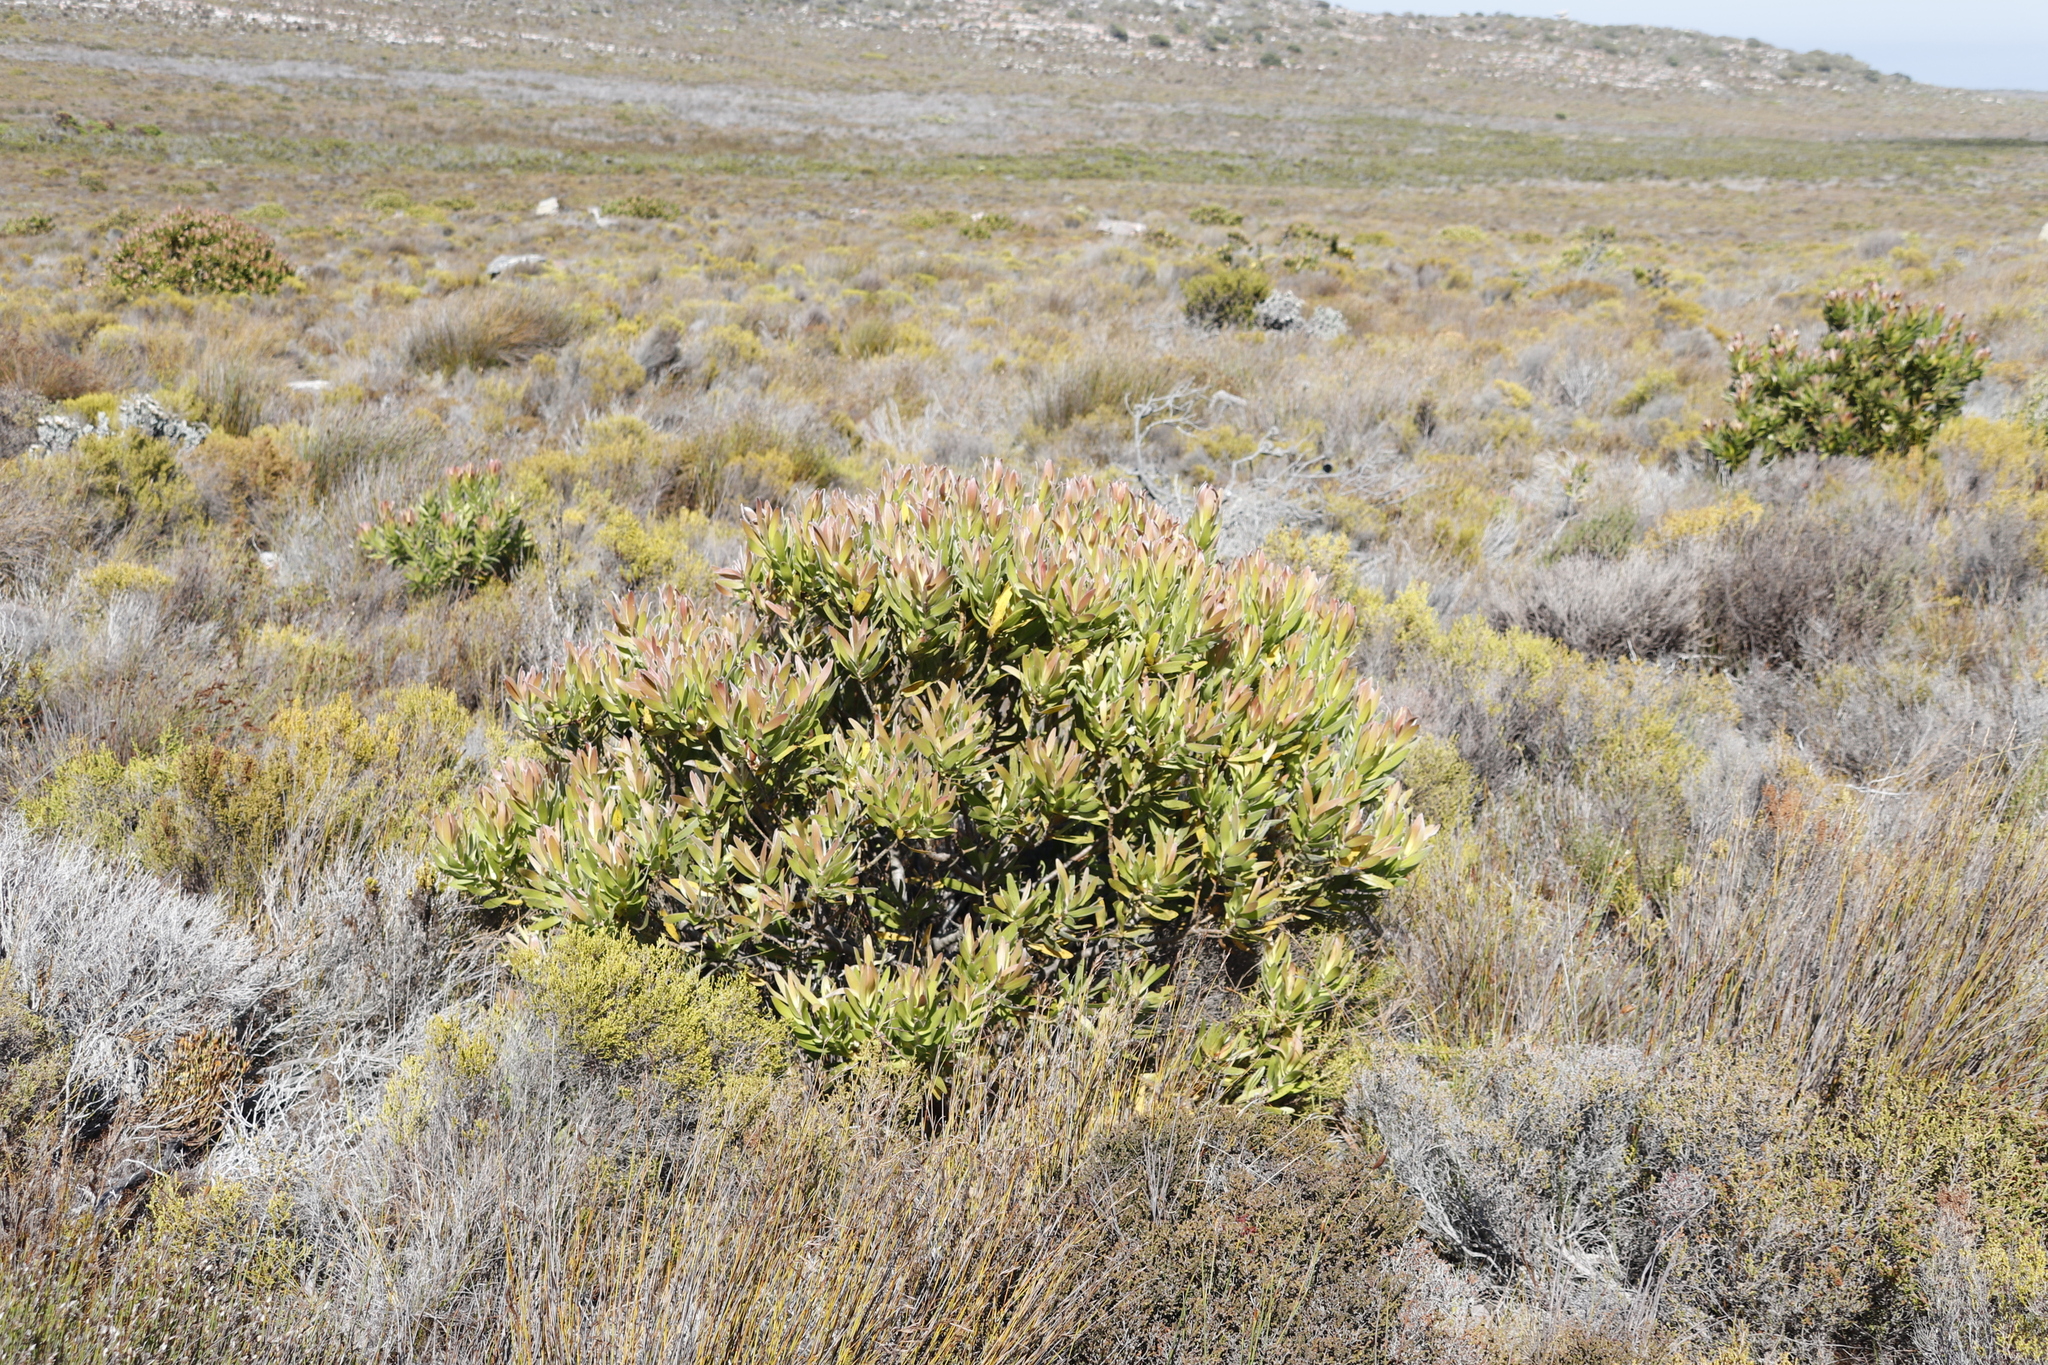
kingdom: Plantae
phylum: Tracheophyta
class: Magnoliopsida
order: Proteales
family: Proteaceae
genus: Protea
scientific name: Protea lepidocarpodendron
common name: Black-bearded protea
